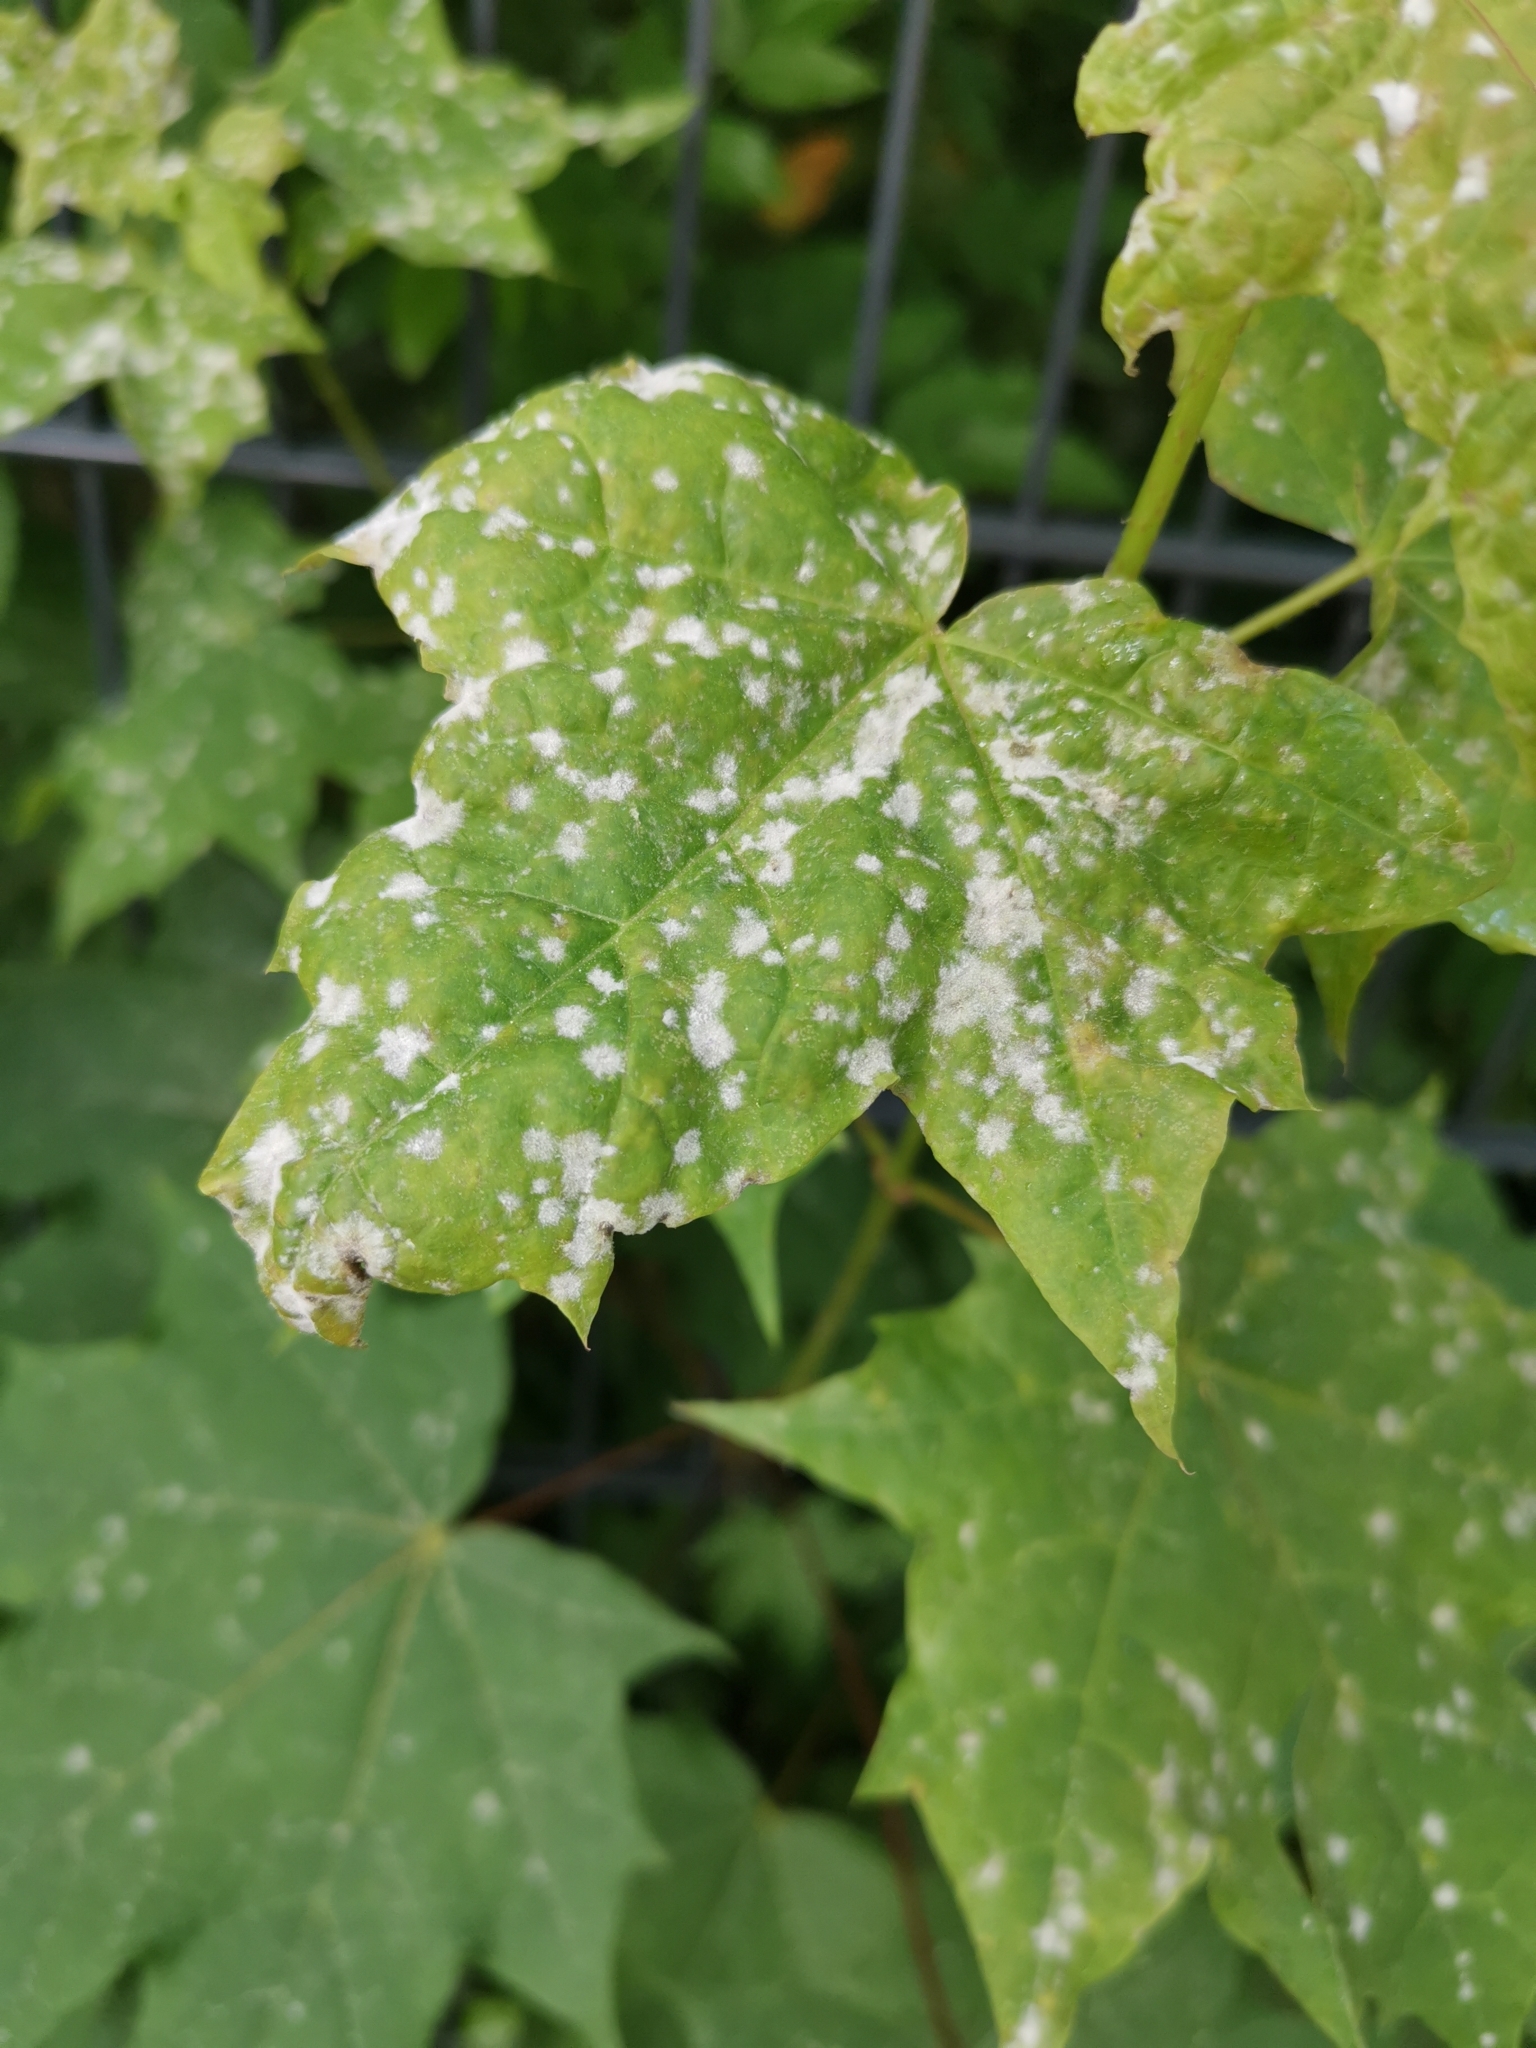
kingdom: Fungi
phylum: Ascomycota
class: Leotiomycetes
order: Helotiales
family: Erysiphaceae
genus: Sawadaea
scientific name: Sawadaea tulasnei
